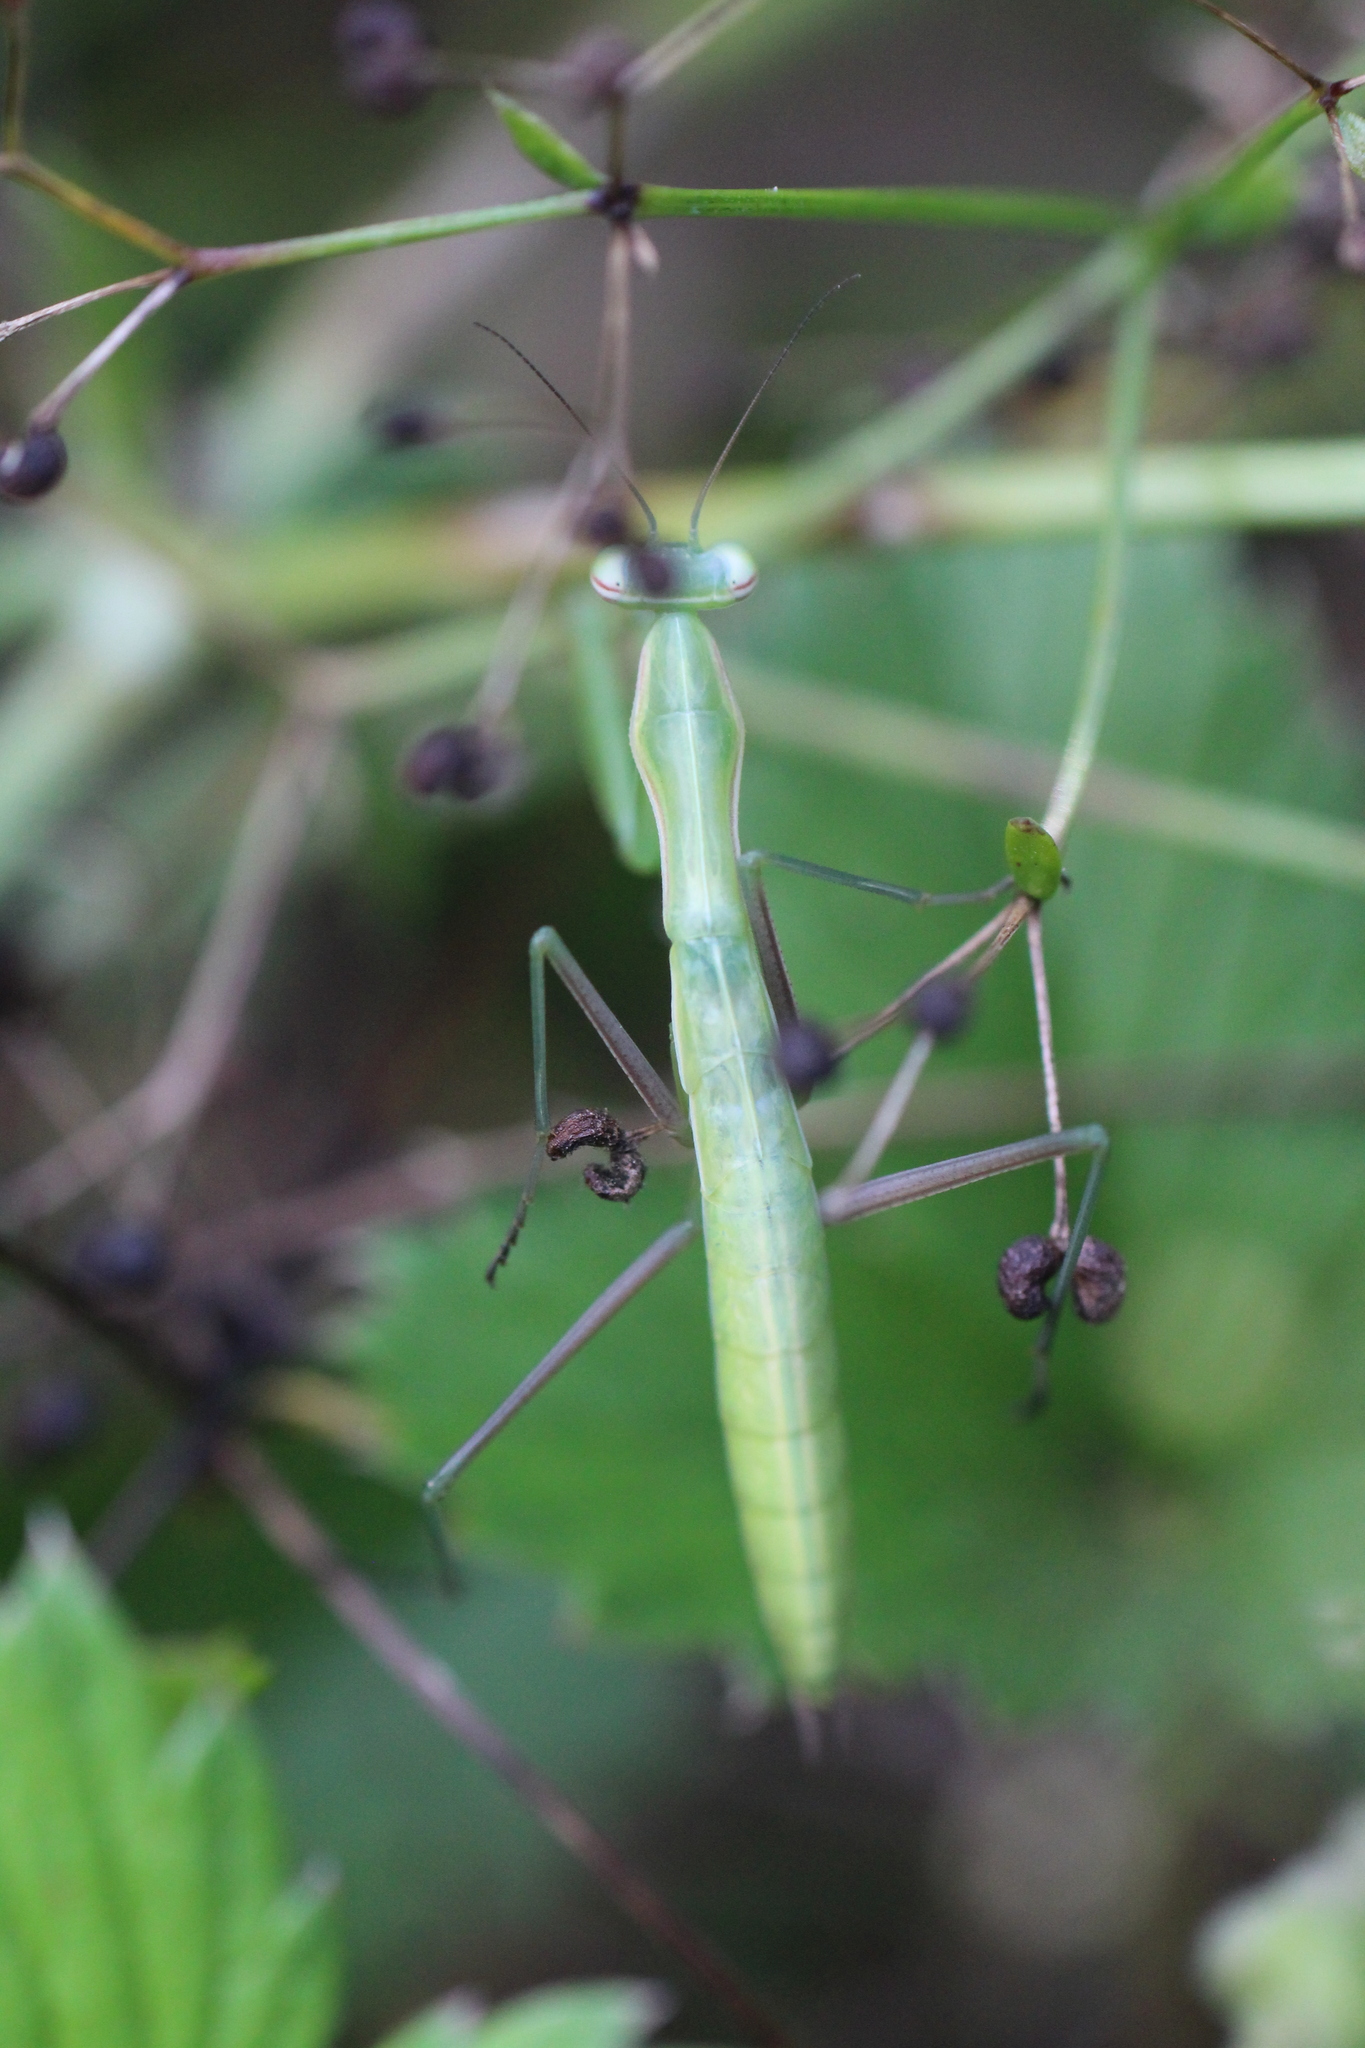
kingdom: Animalia
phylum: Arthropoda
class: Insecta
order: Mantodea
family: Mantidae
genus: Mantis
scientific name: Mantis religiosa
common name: Praying mantis
